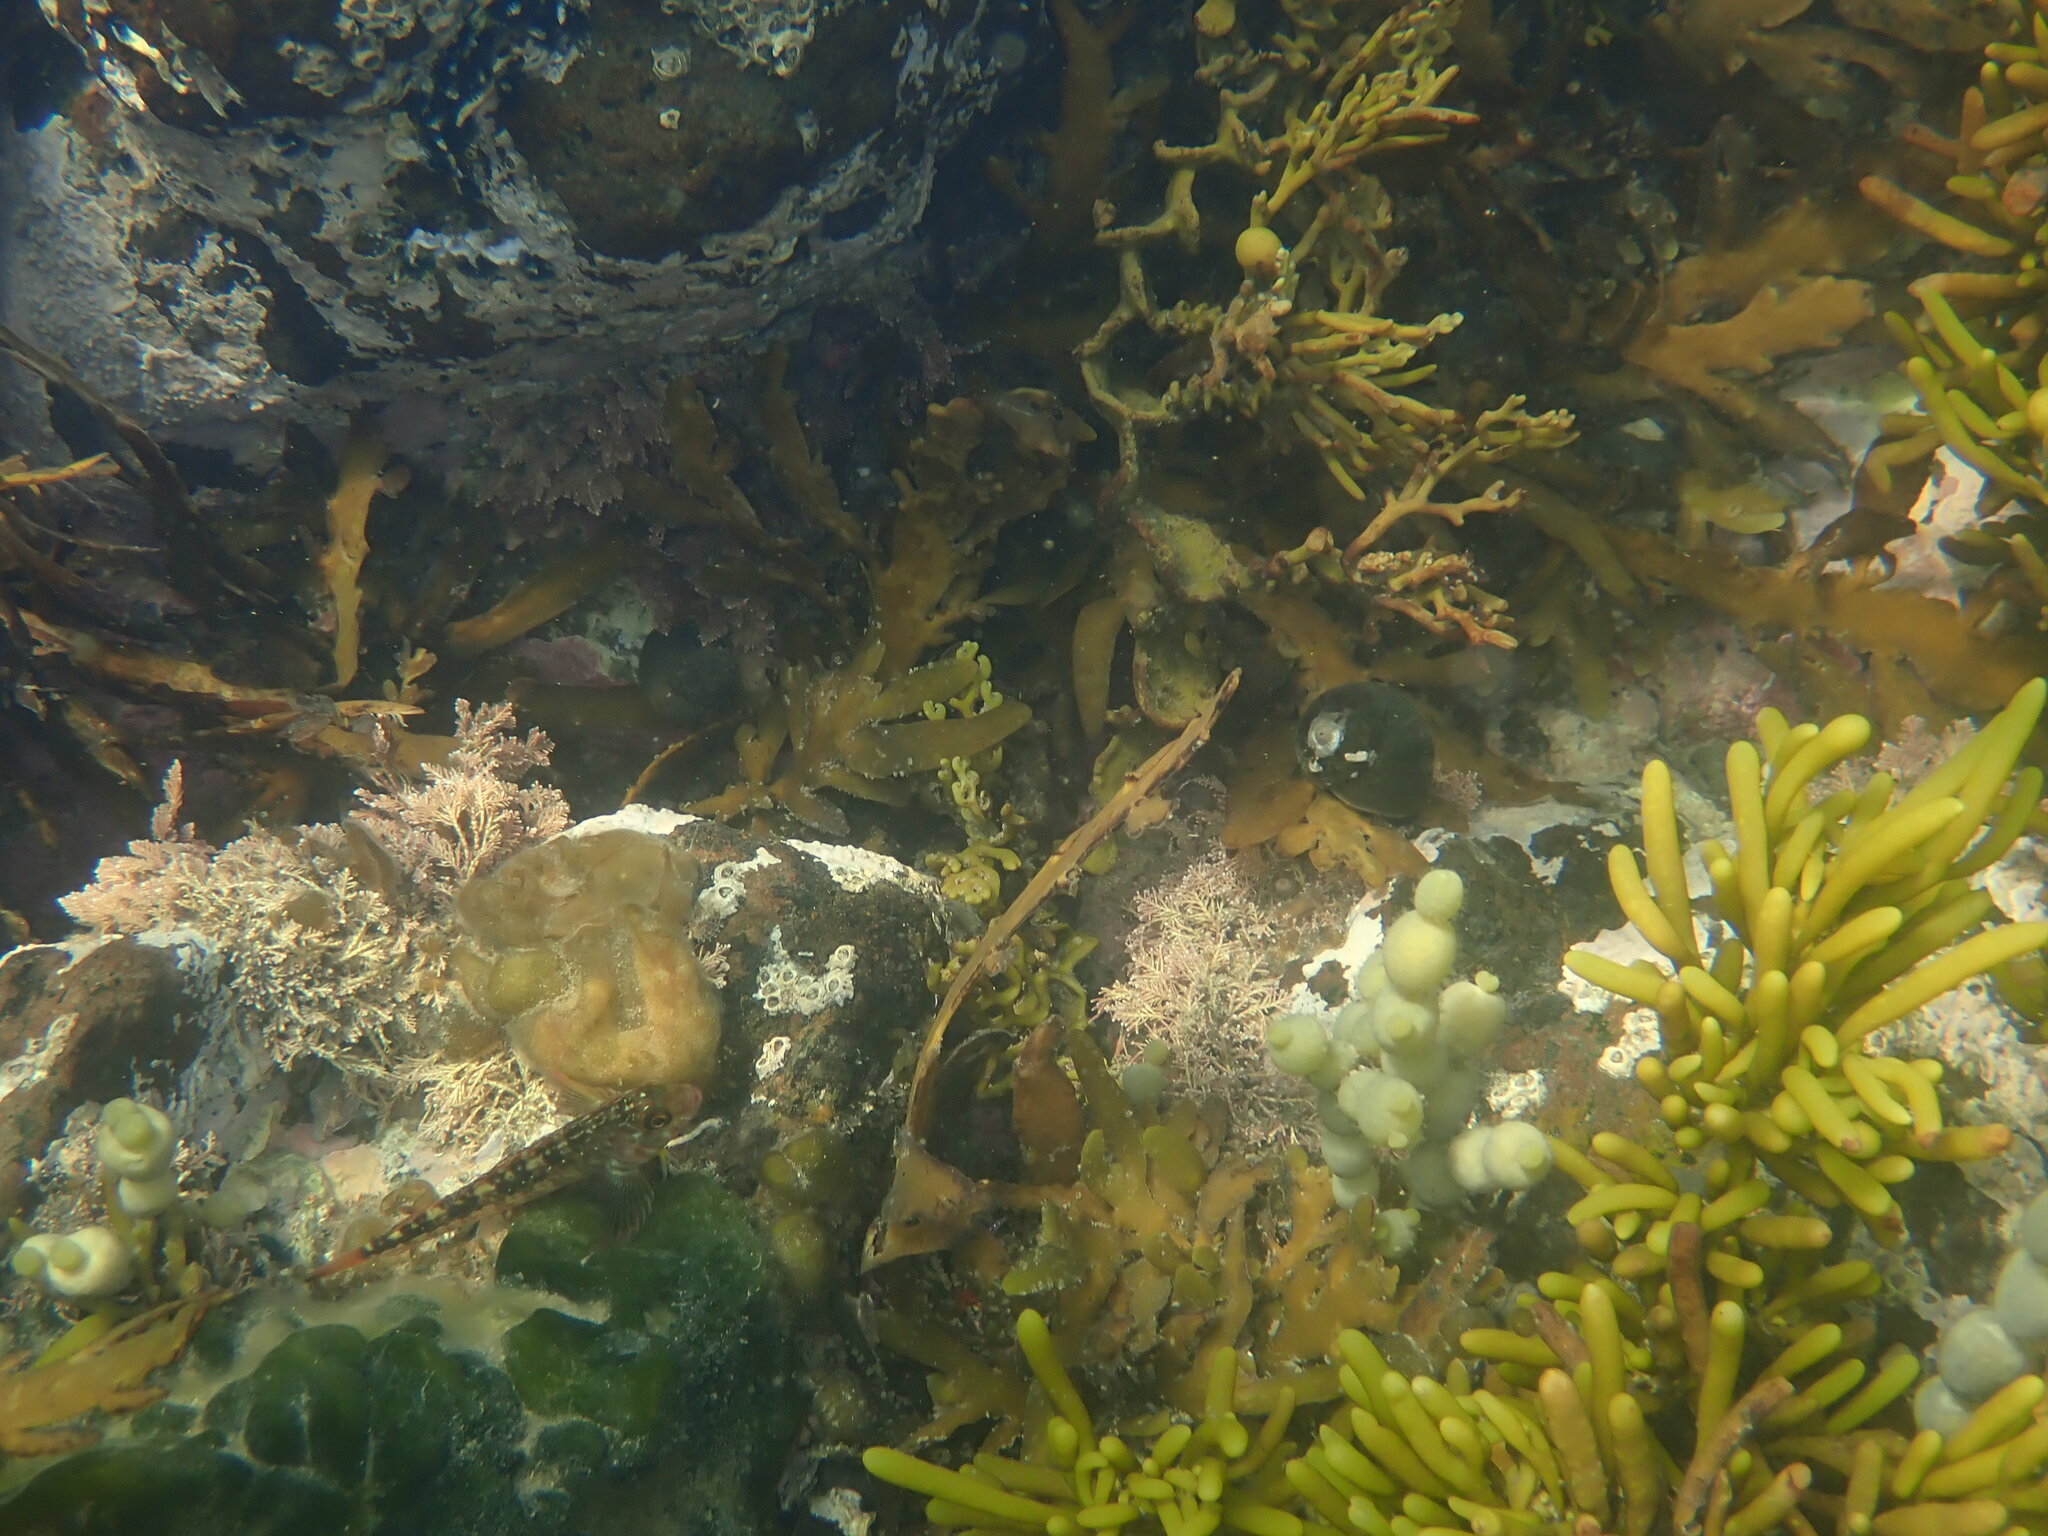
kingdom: Animalia
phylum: Chordata
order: Perciformes
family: Tripterygiidae
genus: Forsterygion
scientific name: Forsterygion varium
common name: Variable triplefin
